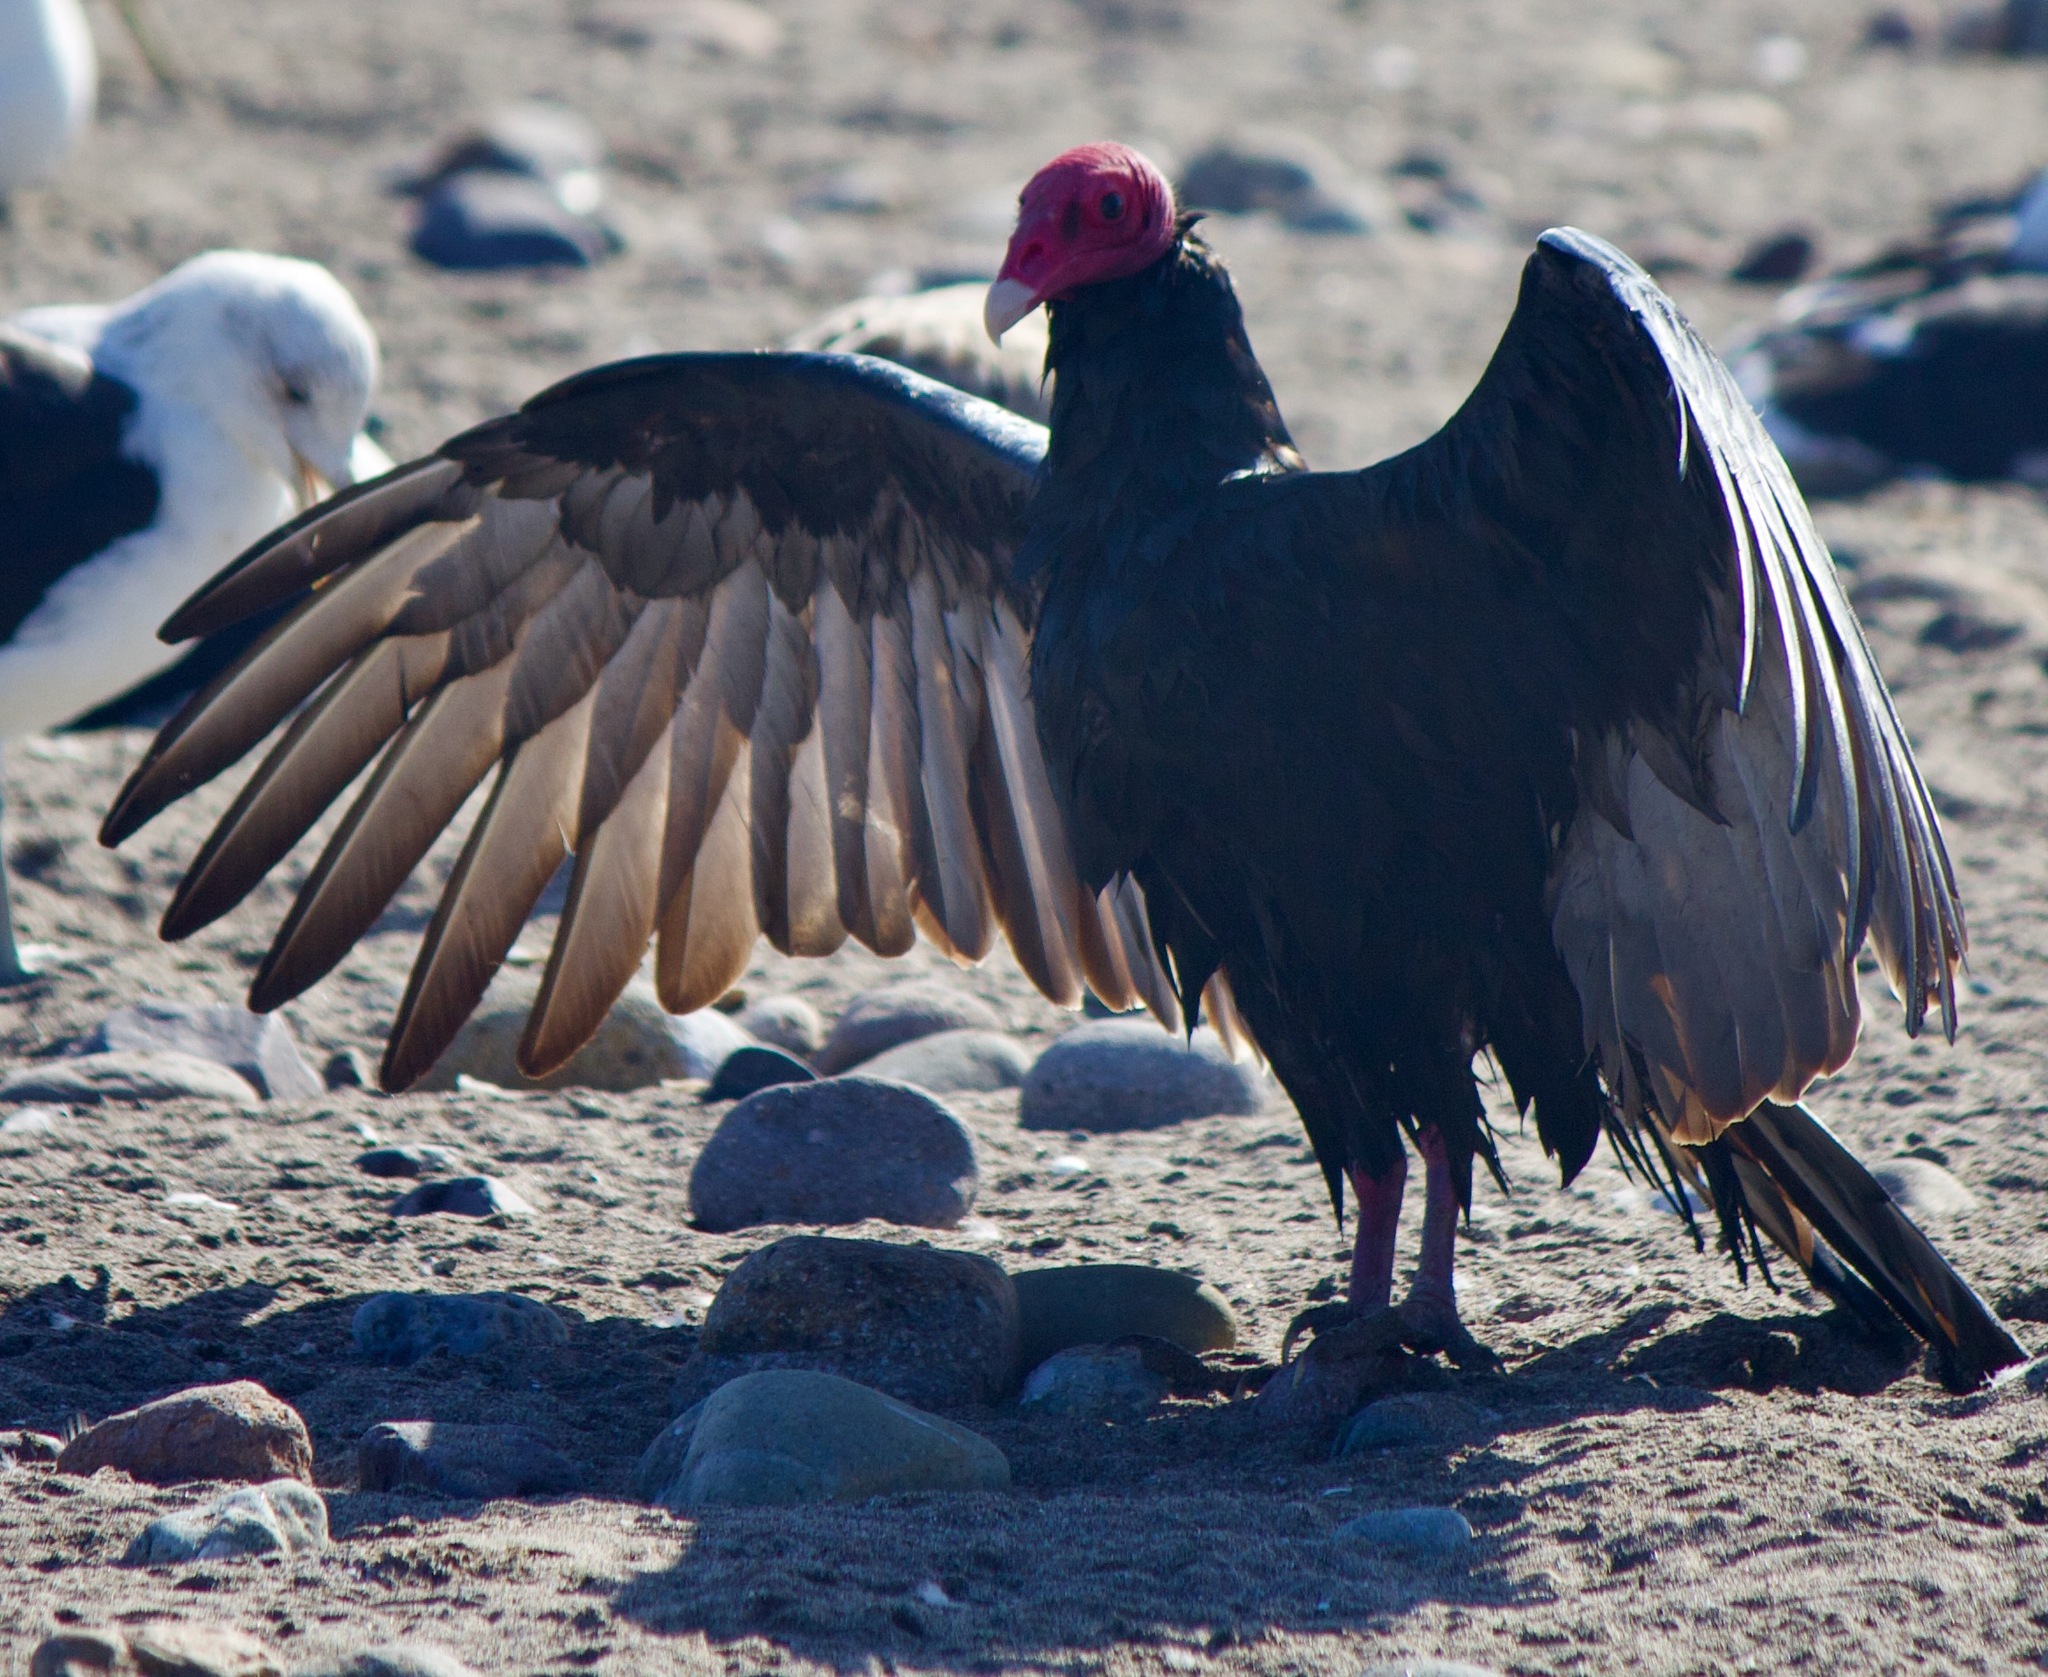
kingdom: Animalia
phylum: Chordata
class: Aves
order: Accipitriformes
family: Cathartidae
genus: Cathartes
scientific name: Cathartes aura
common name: Turkey vulture
